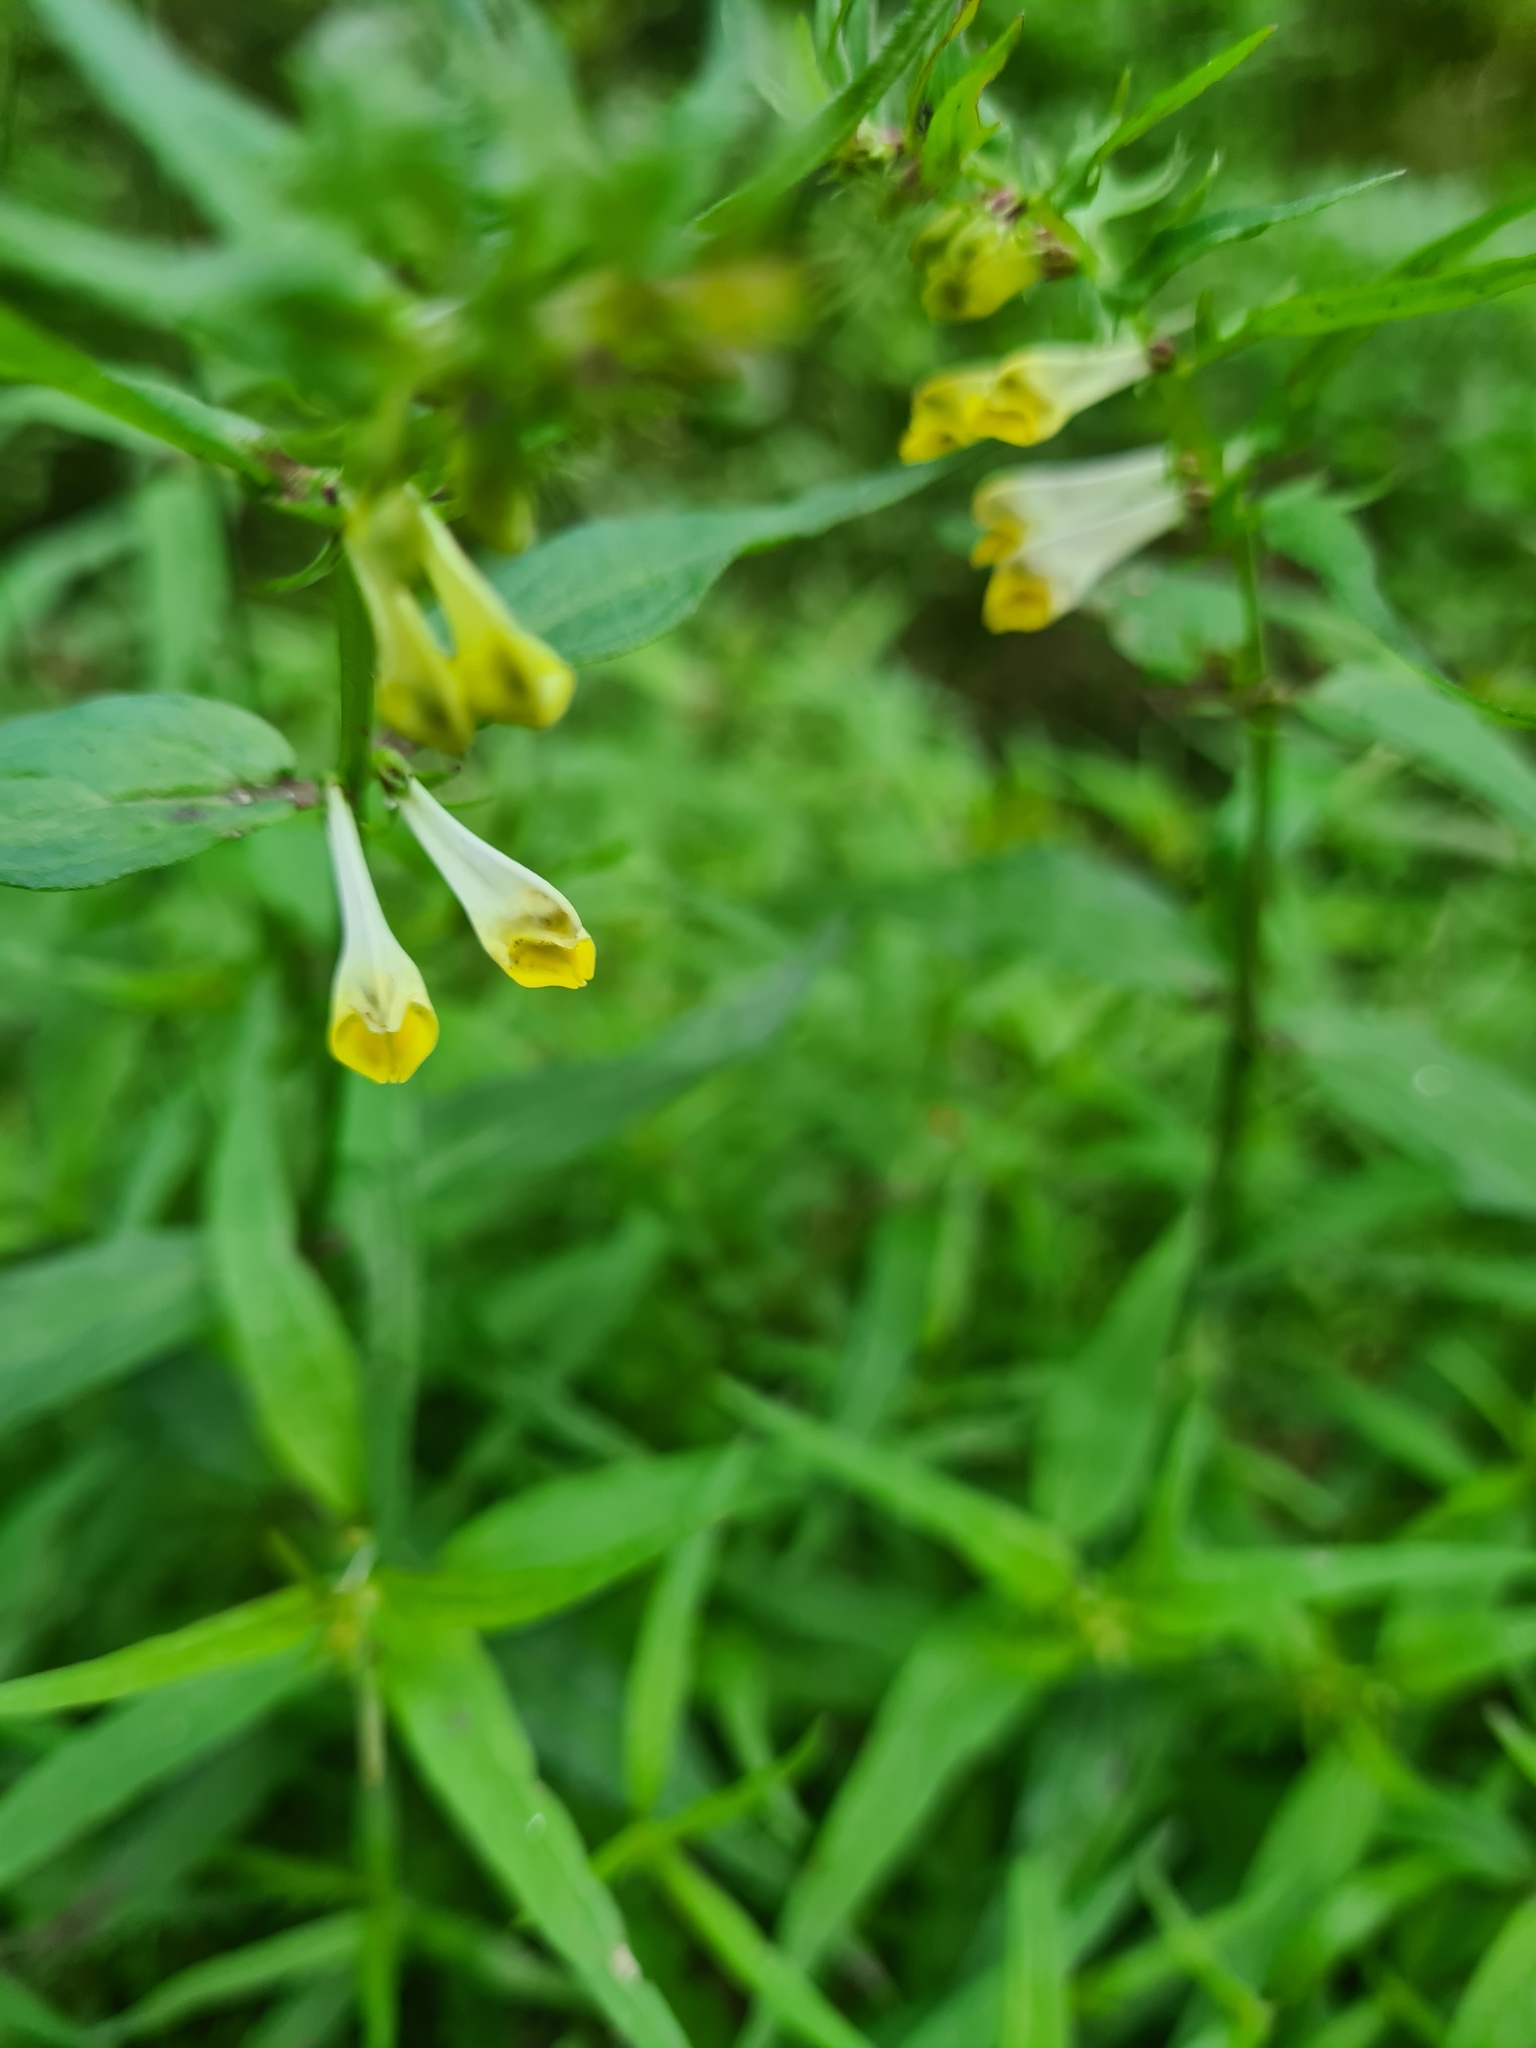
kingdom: Plantae
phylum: Tracheophyta
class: Magnoliopsida
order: Lamiales
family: Orobanchaceae
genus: Melampyrum
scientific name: Melampyrum pratense
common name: Common cow-wheat
